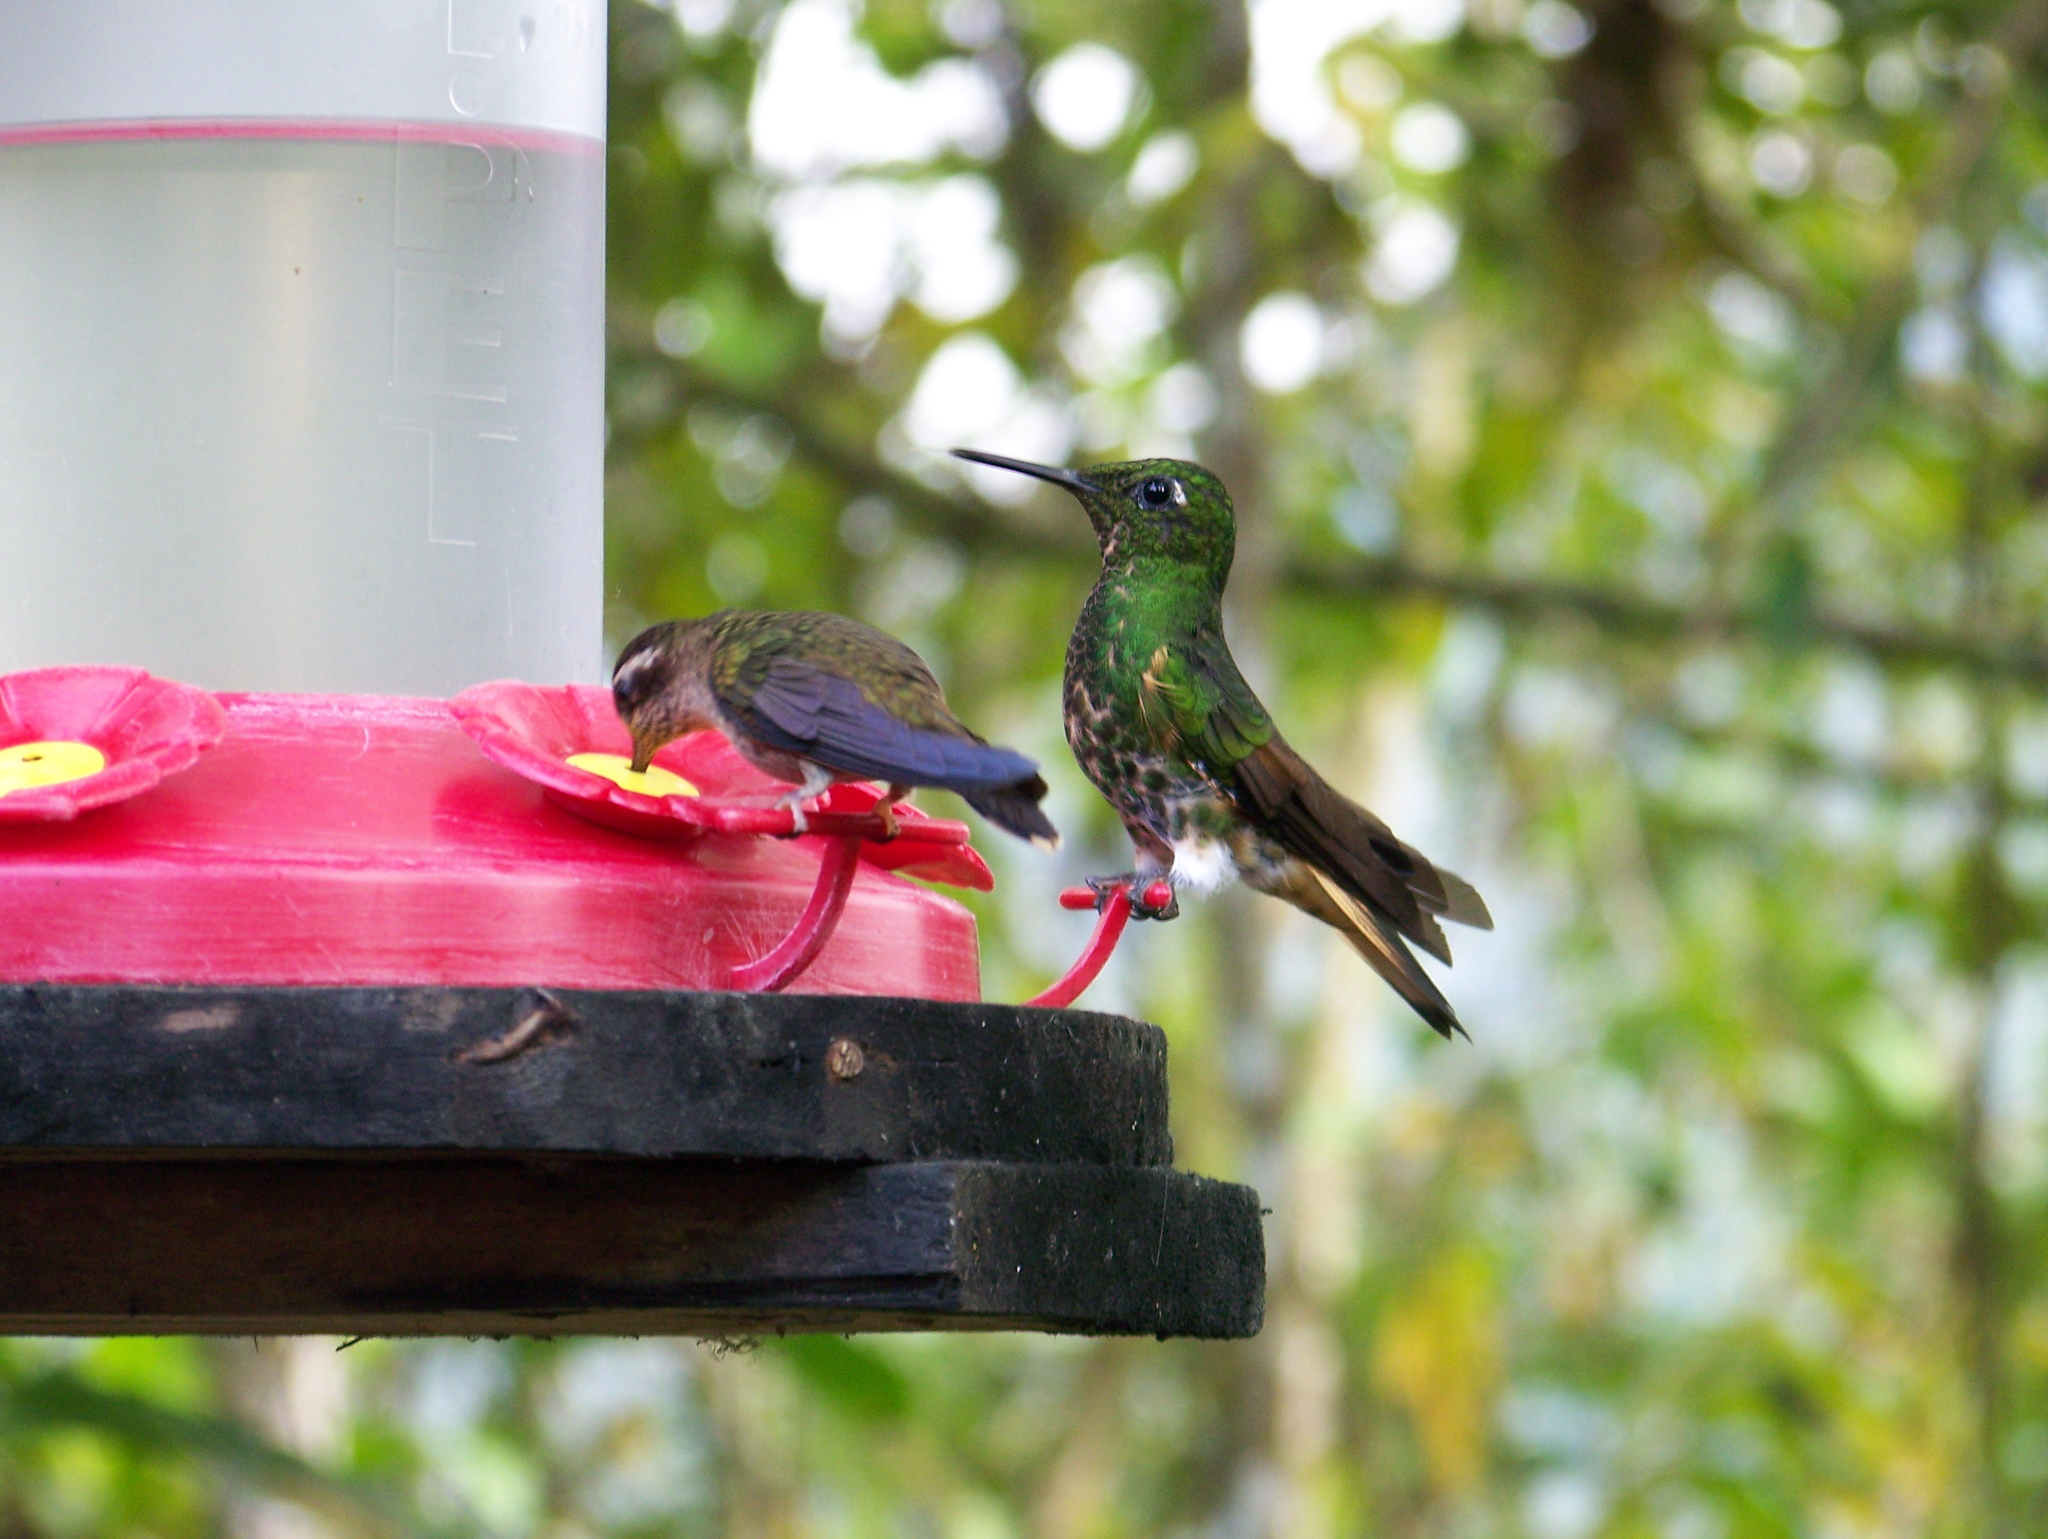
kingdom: Animalia
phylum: Chordata
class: Aves
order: Apodiformes
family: Trochilidae
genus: Boissonneaua
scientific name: Boissonneaua flavescens
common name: Buff-tailed coronet
